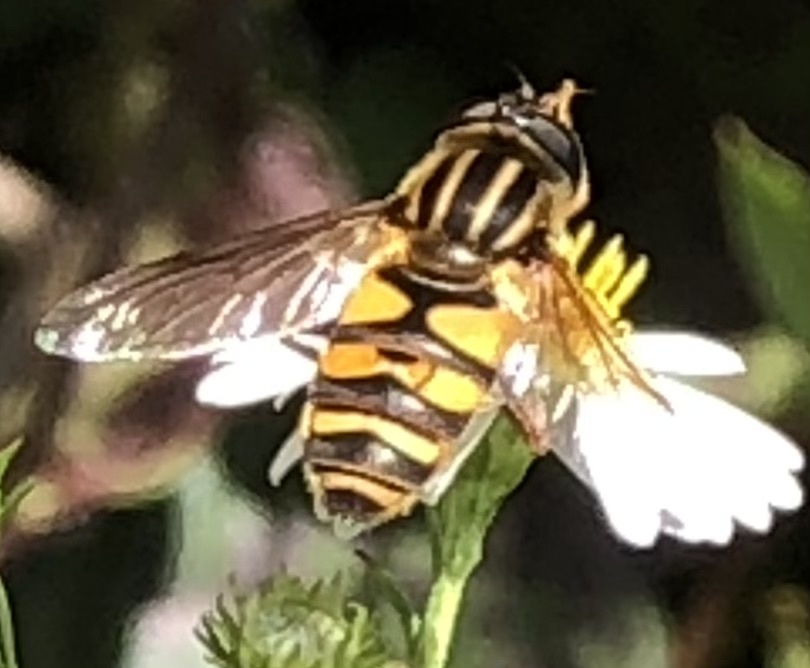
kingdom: Animalia
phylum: Arthropoda
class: Insecta
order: Diptera
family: Syrphidae
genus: Helophilus
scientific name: Helophilus fasciatus
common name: Narrow-headed marsh fly
